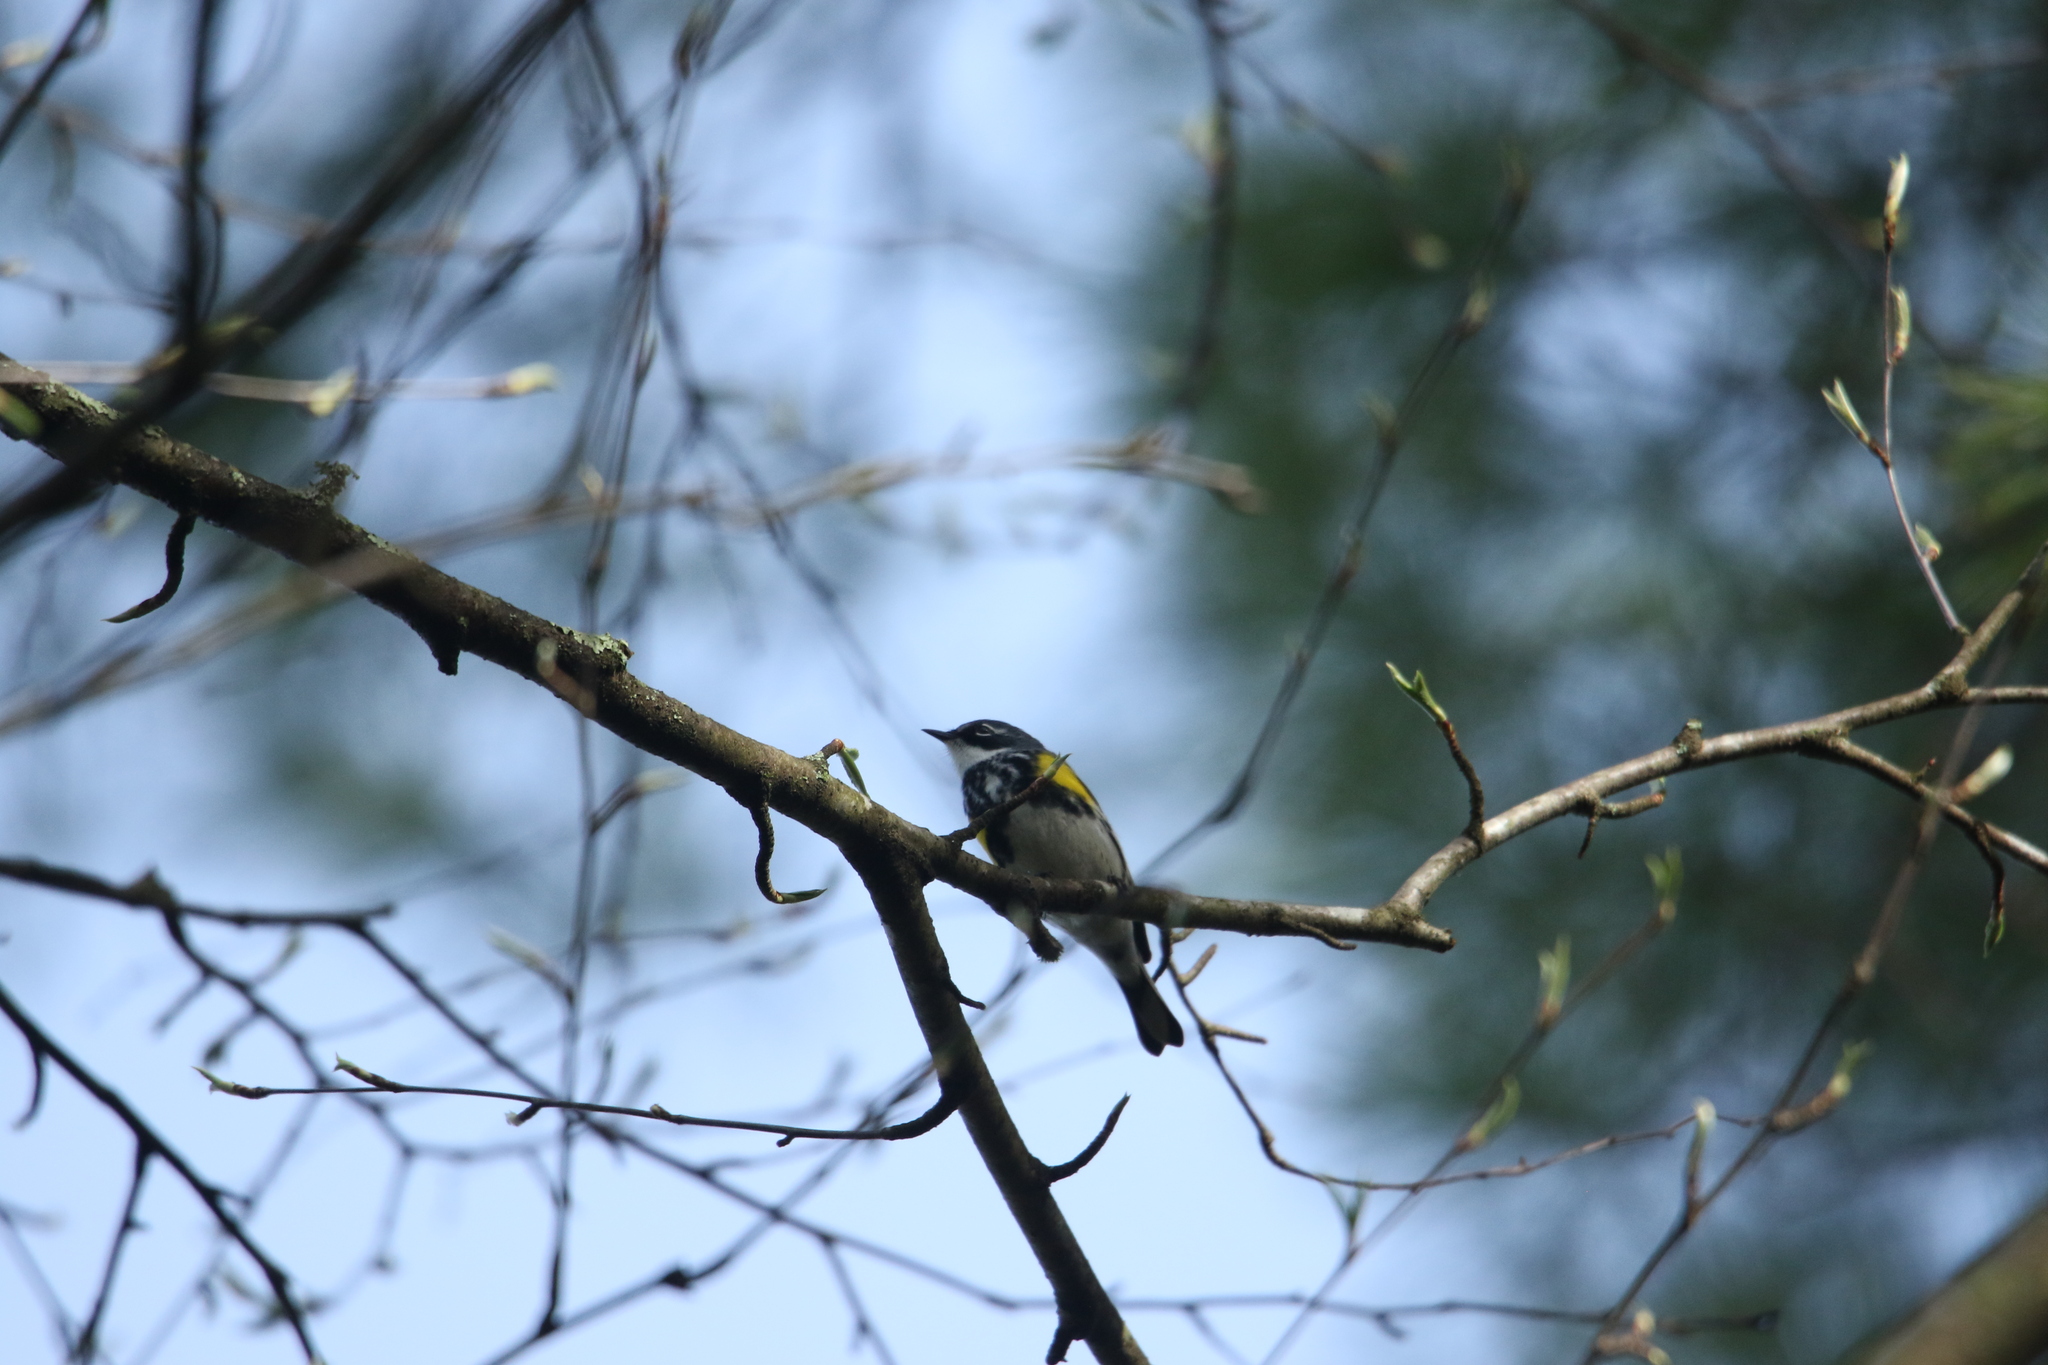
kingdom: Animalia
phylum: Chordata
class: Aves
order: Passeriformes
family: Parulidae
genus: Setophaga
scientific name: Setophaga coronata
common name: Myrtle warbler
